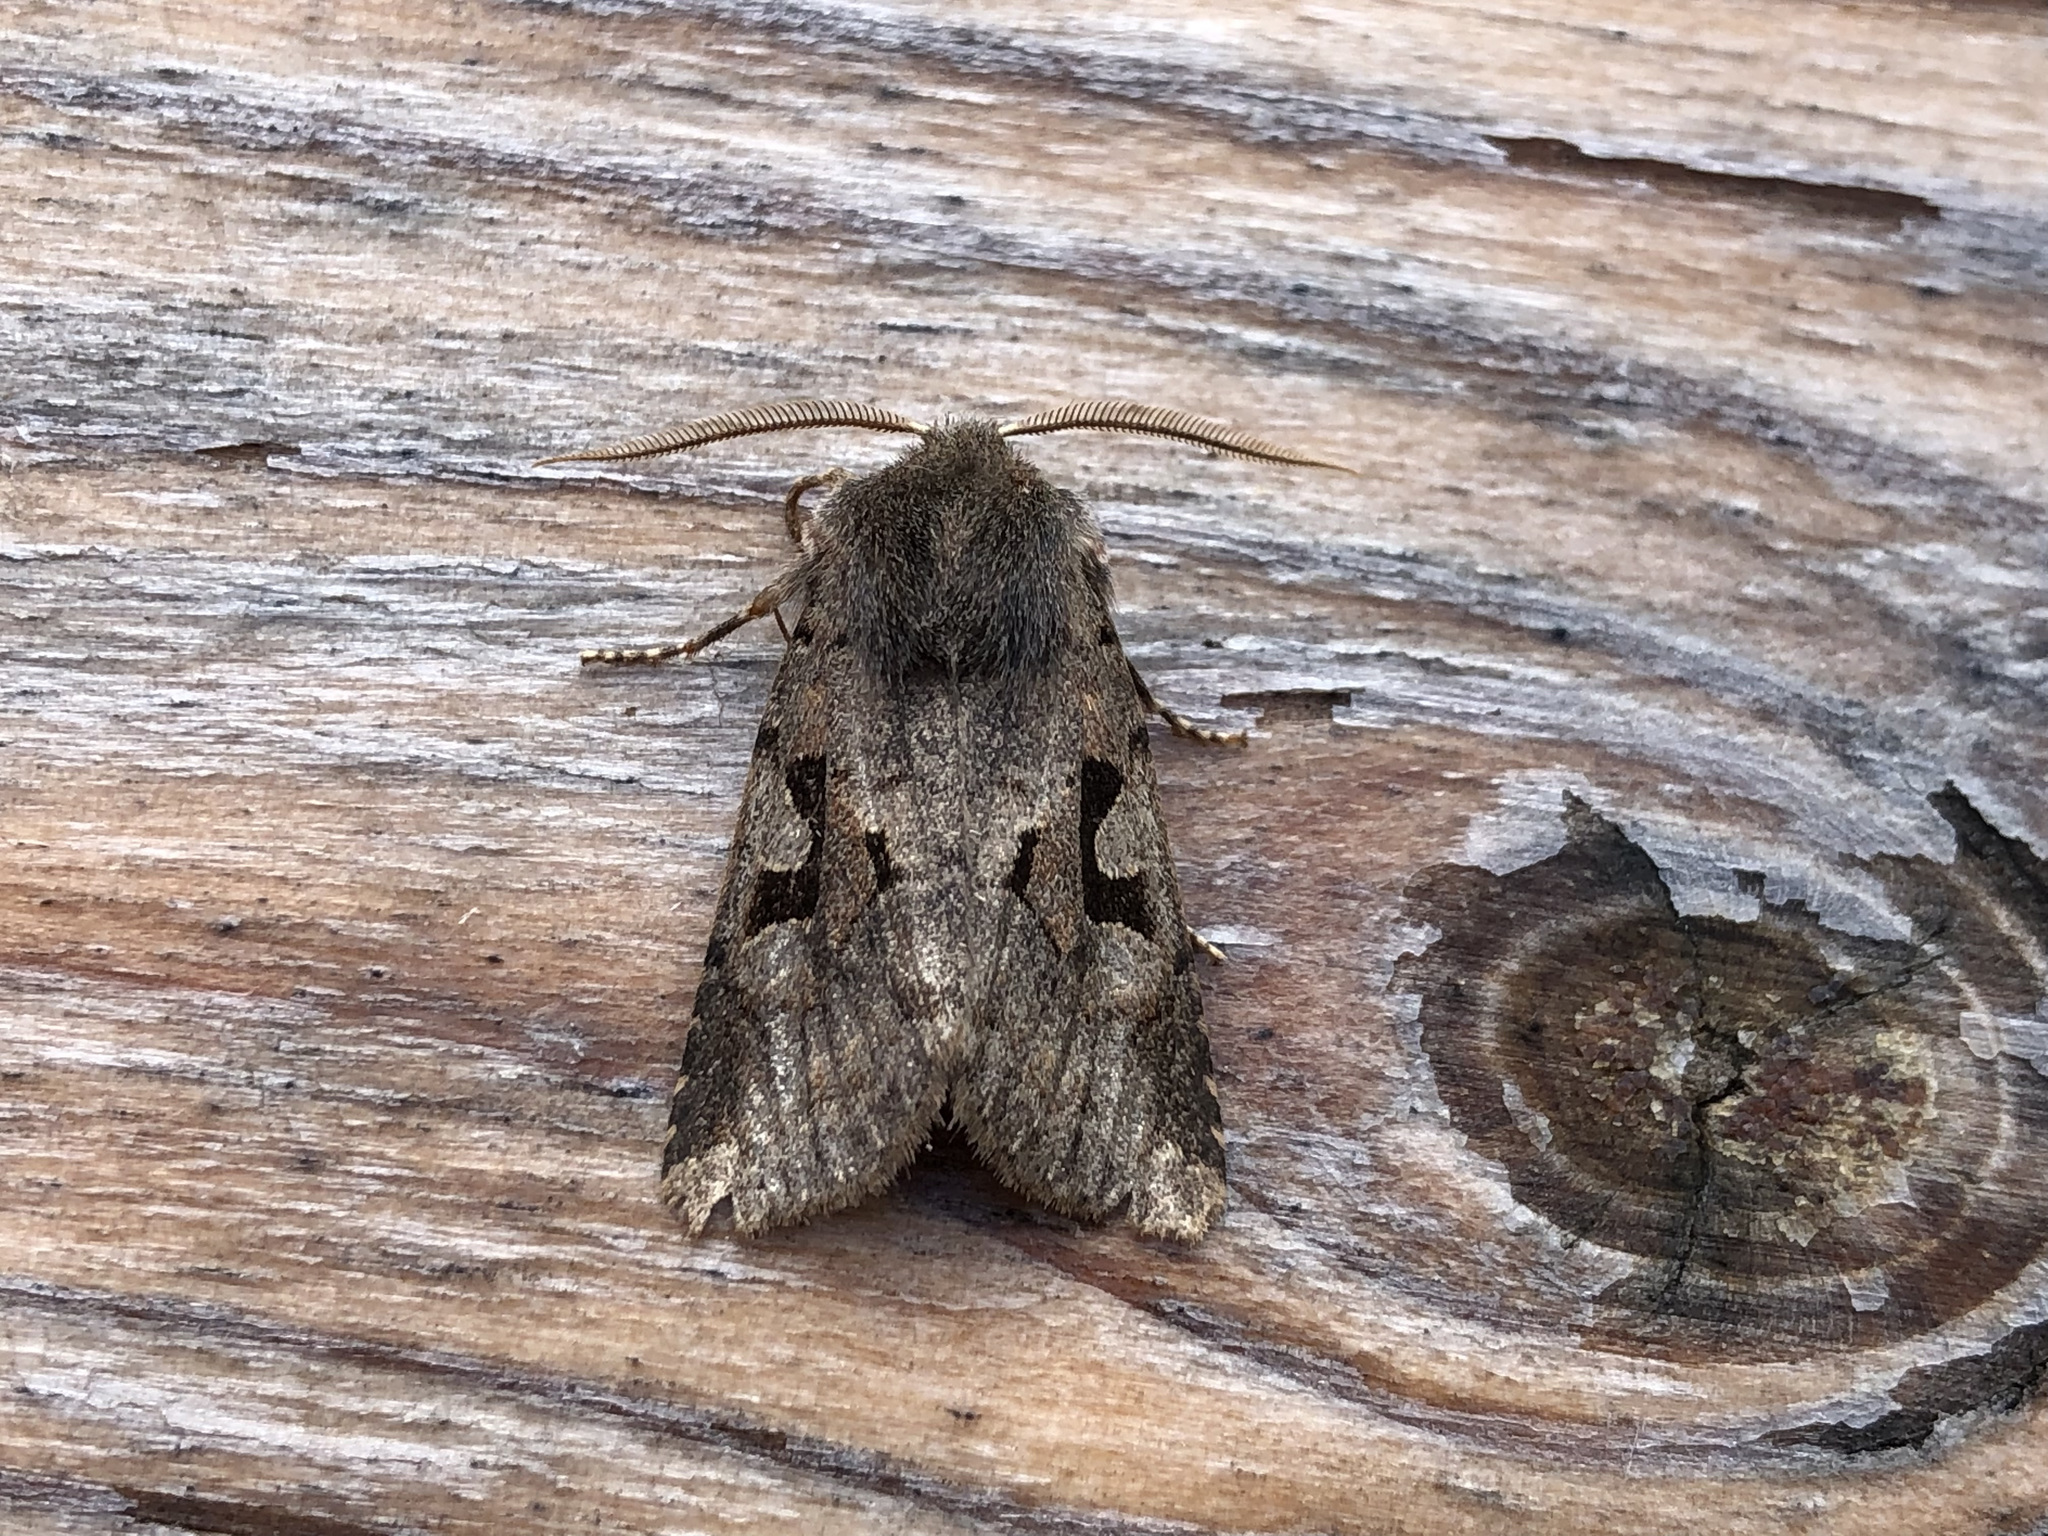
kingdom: Animalia
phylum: Arthropoda
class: Insecta
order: Lepidoptera
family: Noctuidae
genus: Orthosia
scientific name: Orthosia gothica
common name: Hebrew character
